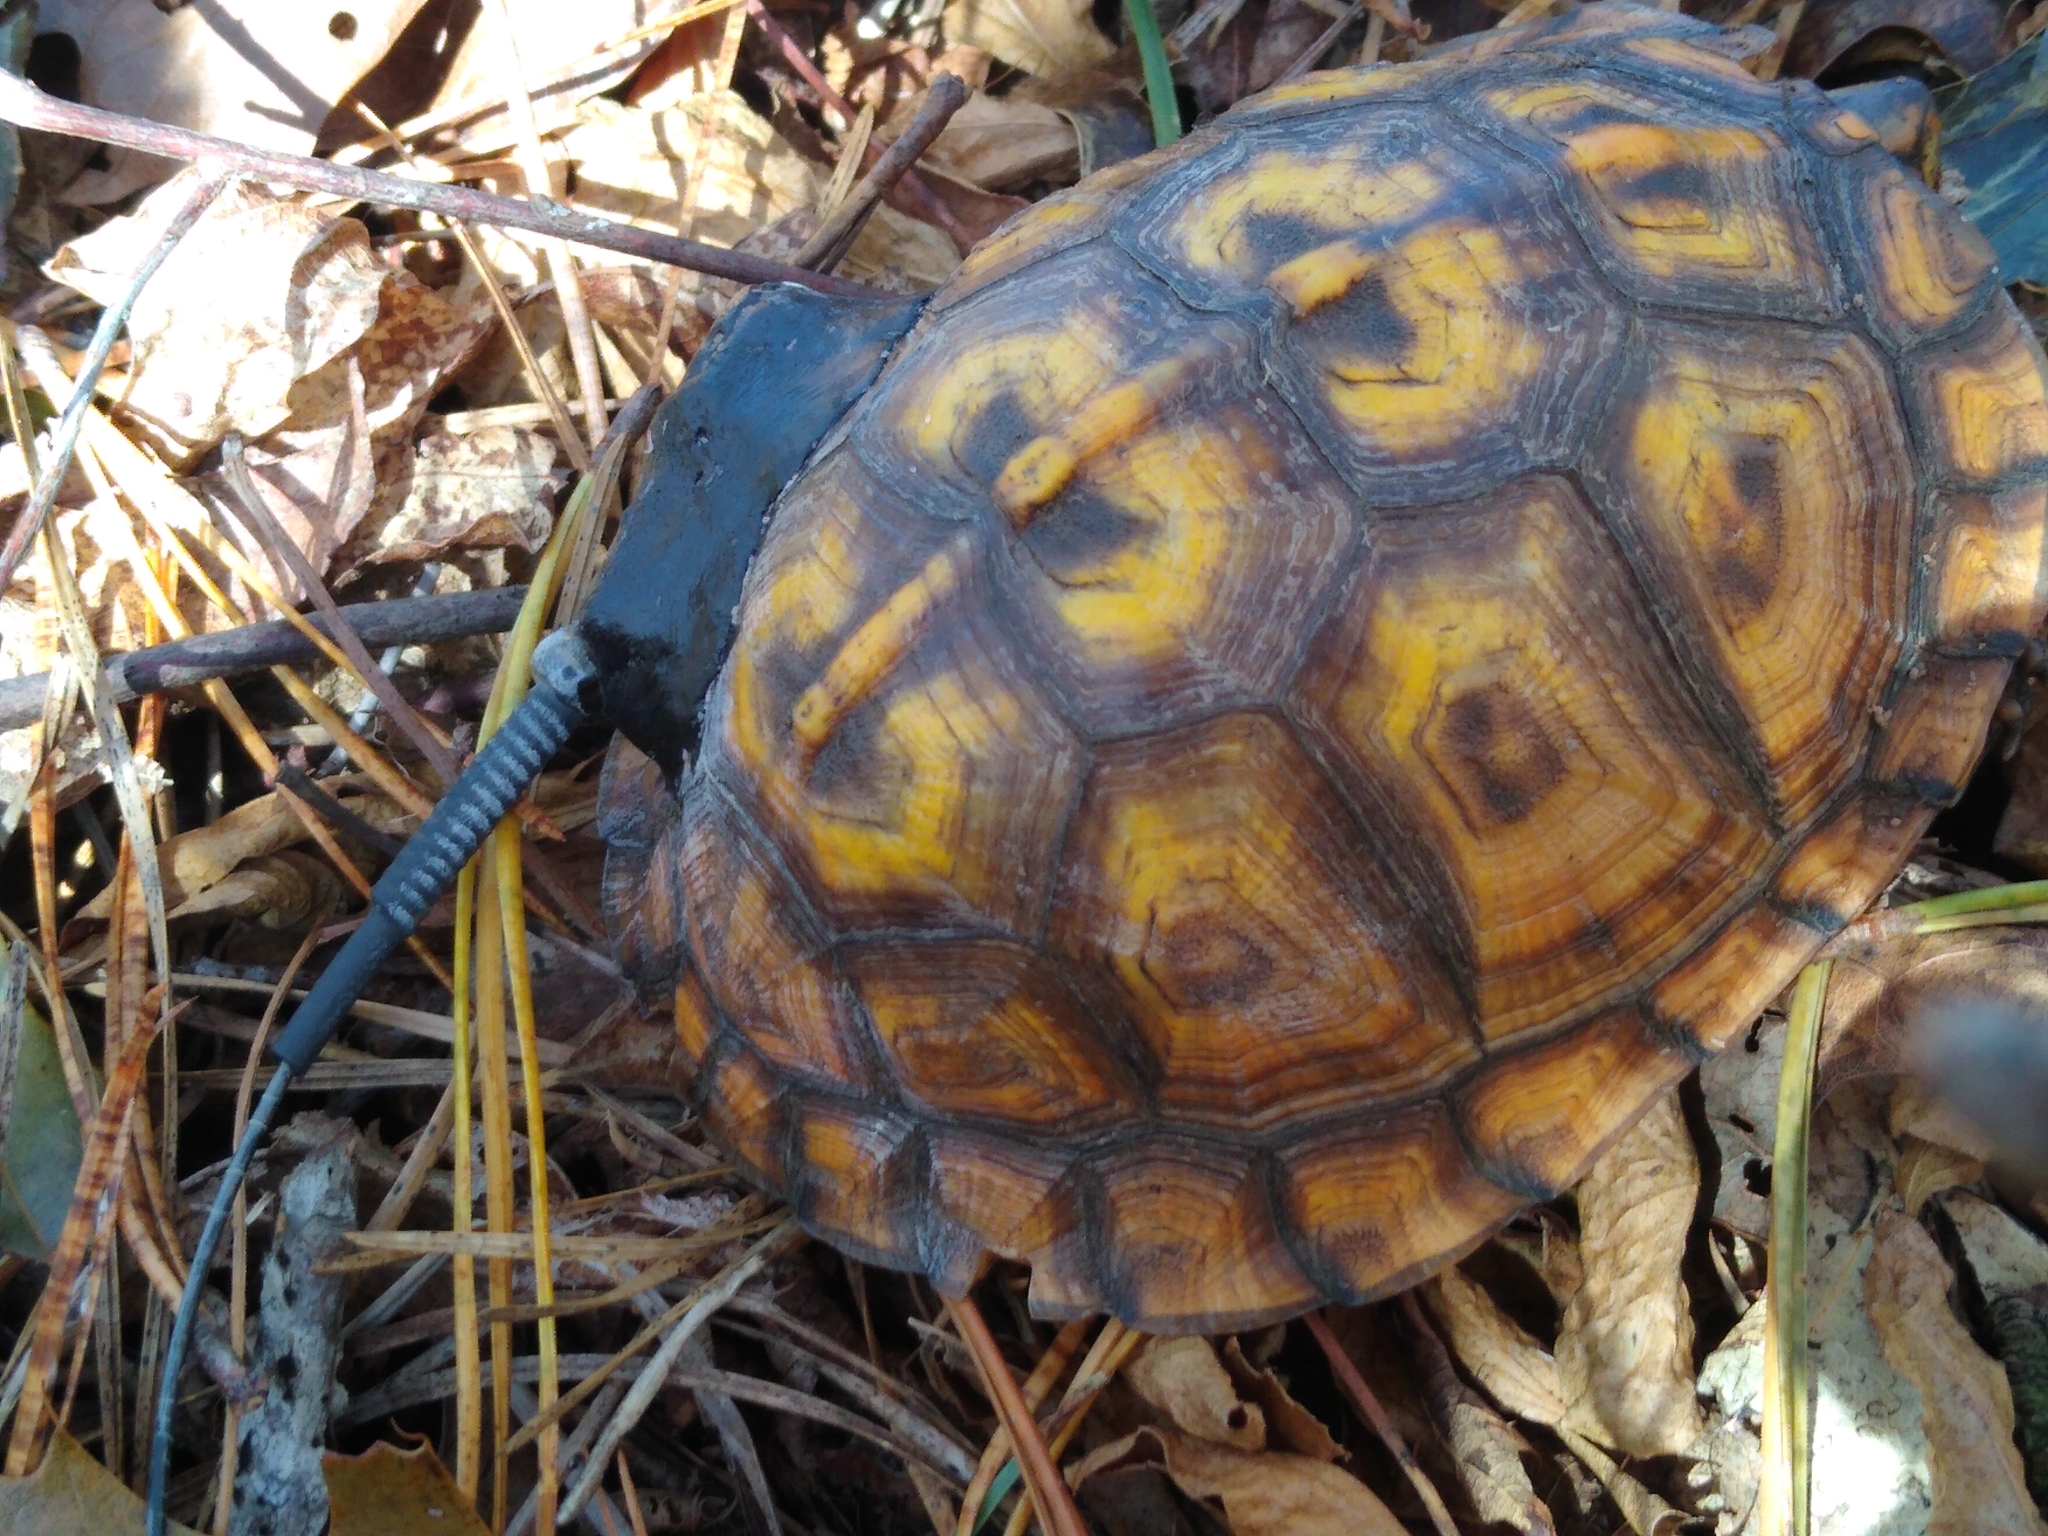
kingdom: Animalia
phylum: Chordata
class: Testudines
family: Emydidae
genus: Terrapene
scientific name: Terrapene carolina
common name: Common box turtle
